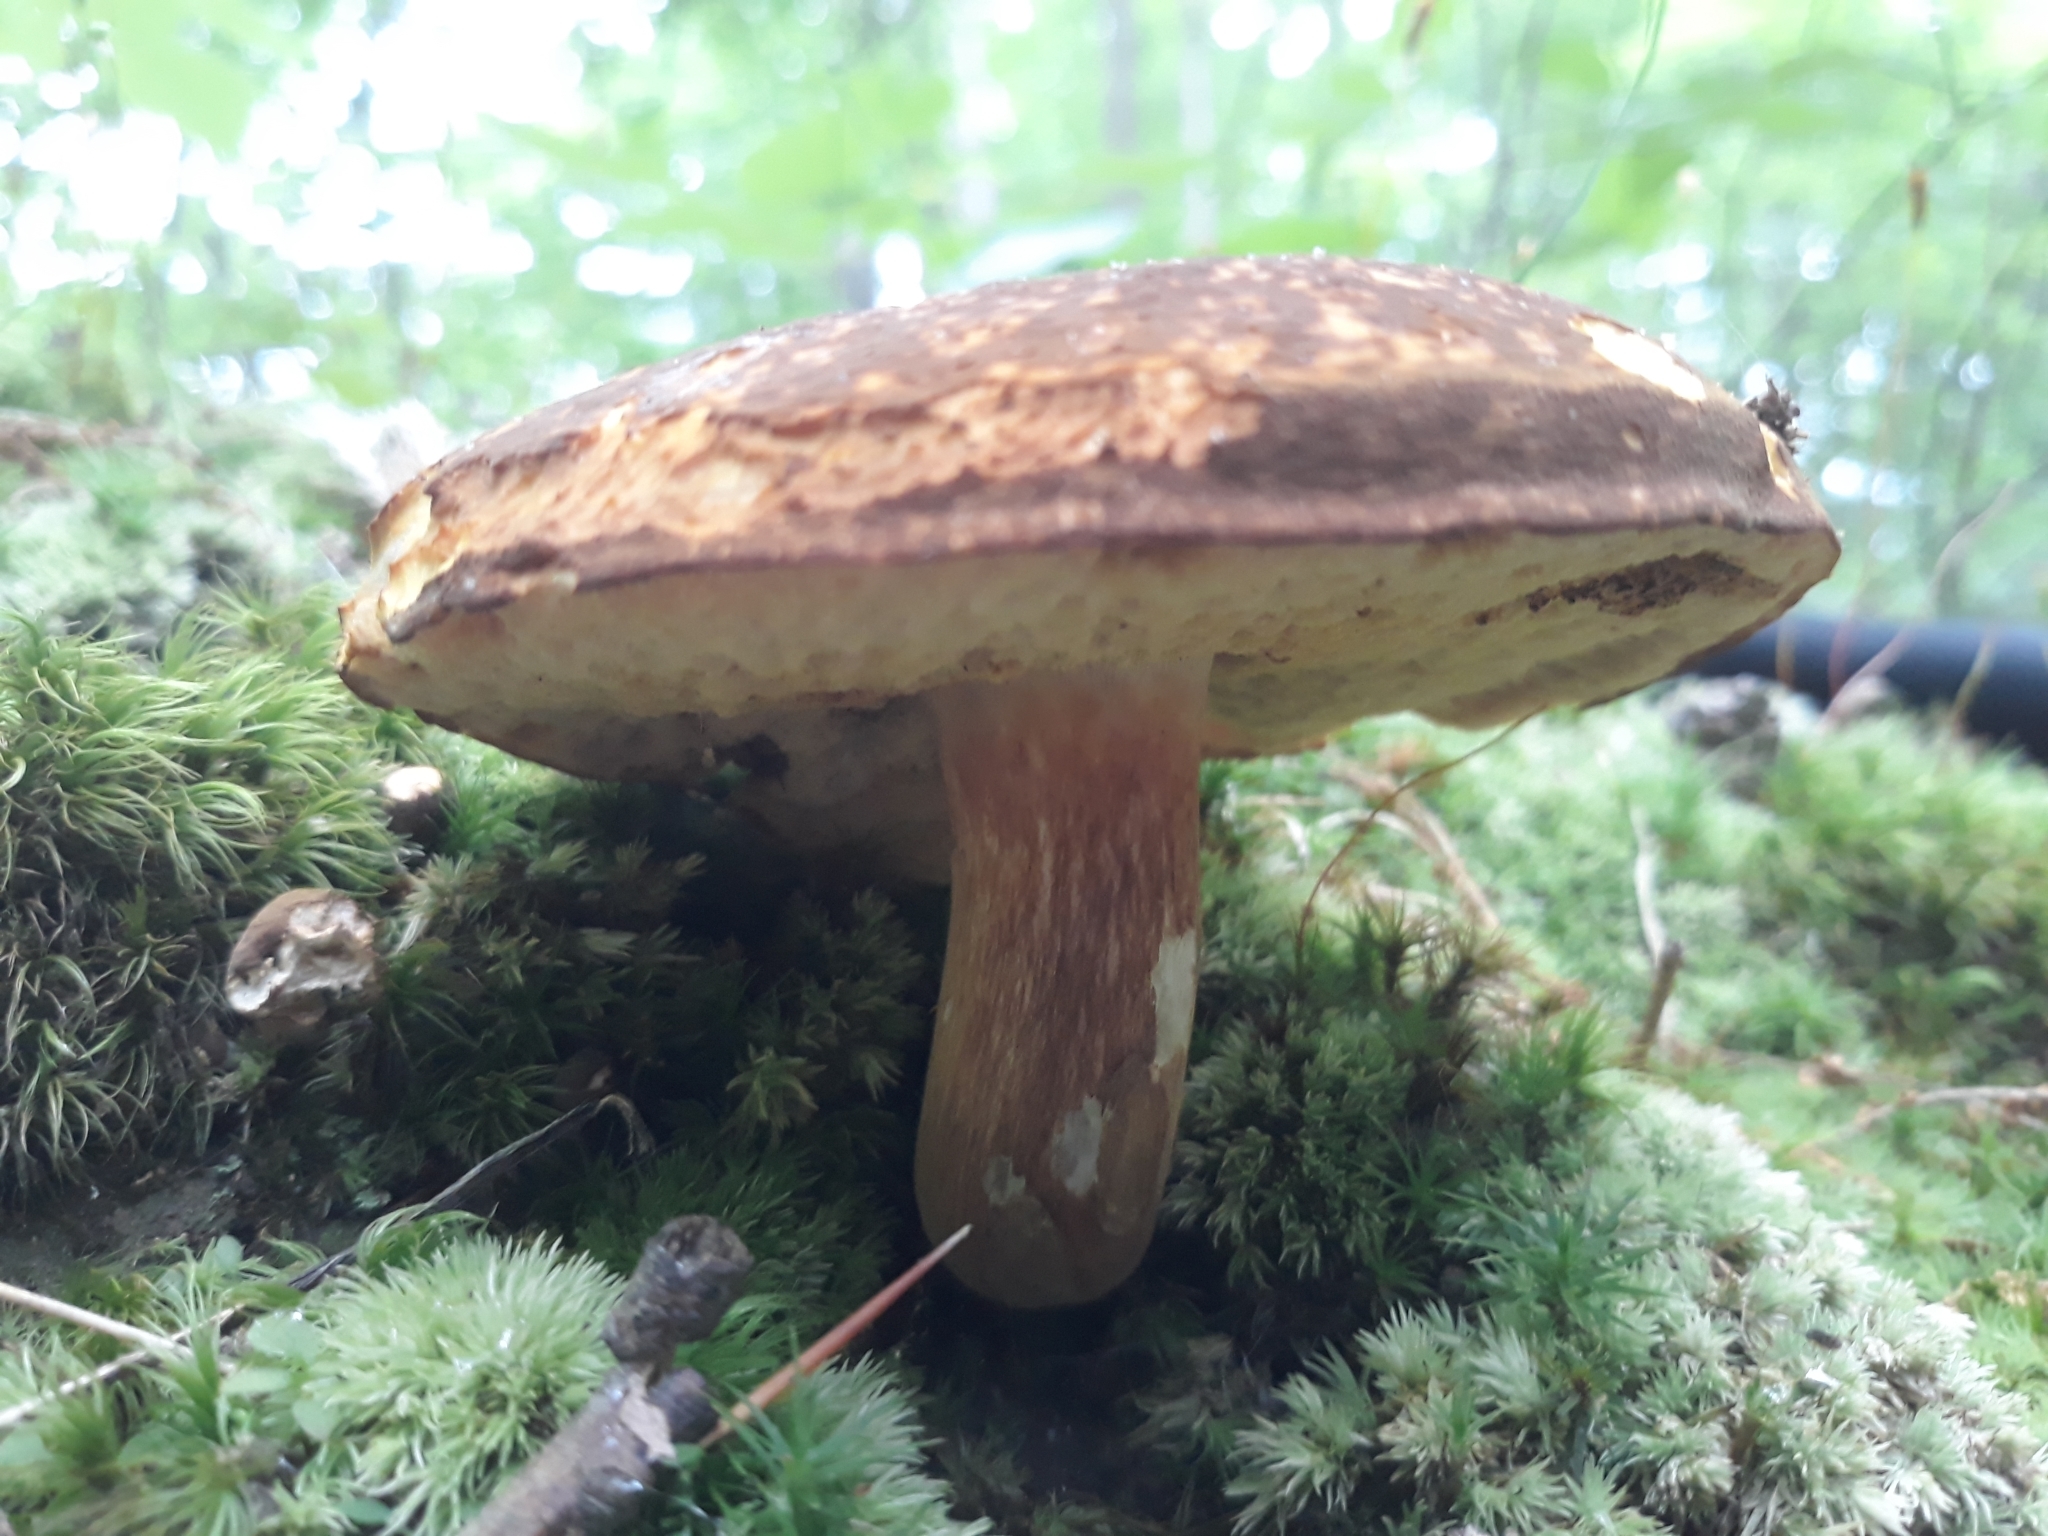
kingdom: Fungi
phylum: Basidiomycota
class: Agaricomycetes
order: Boletales
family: Boletaceae
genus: Xanthoconium
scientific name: Xanthoconium affine
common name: Spotted bolete
